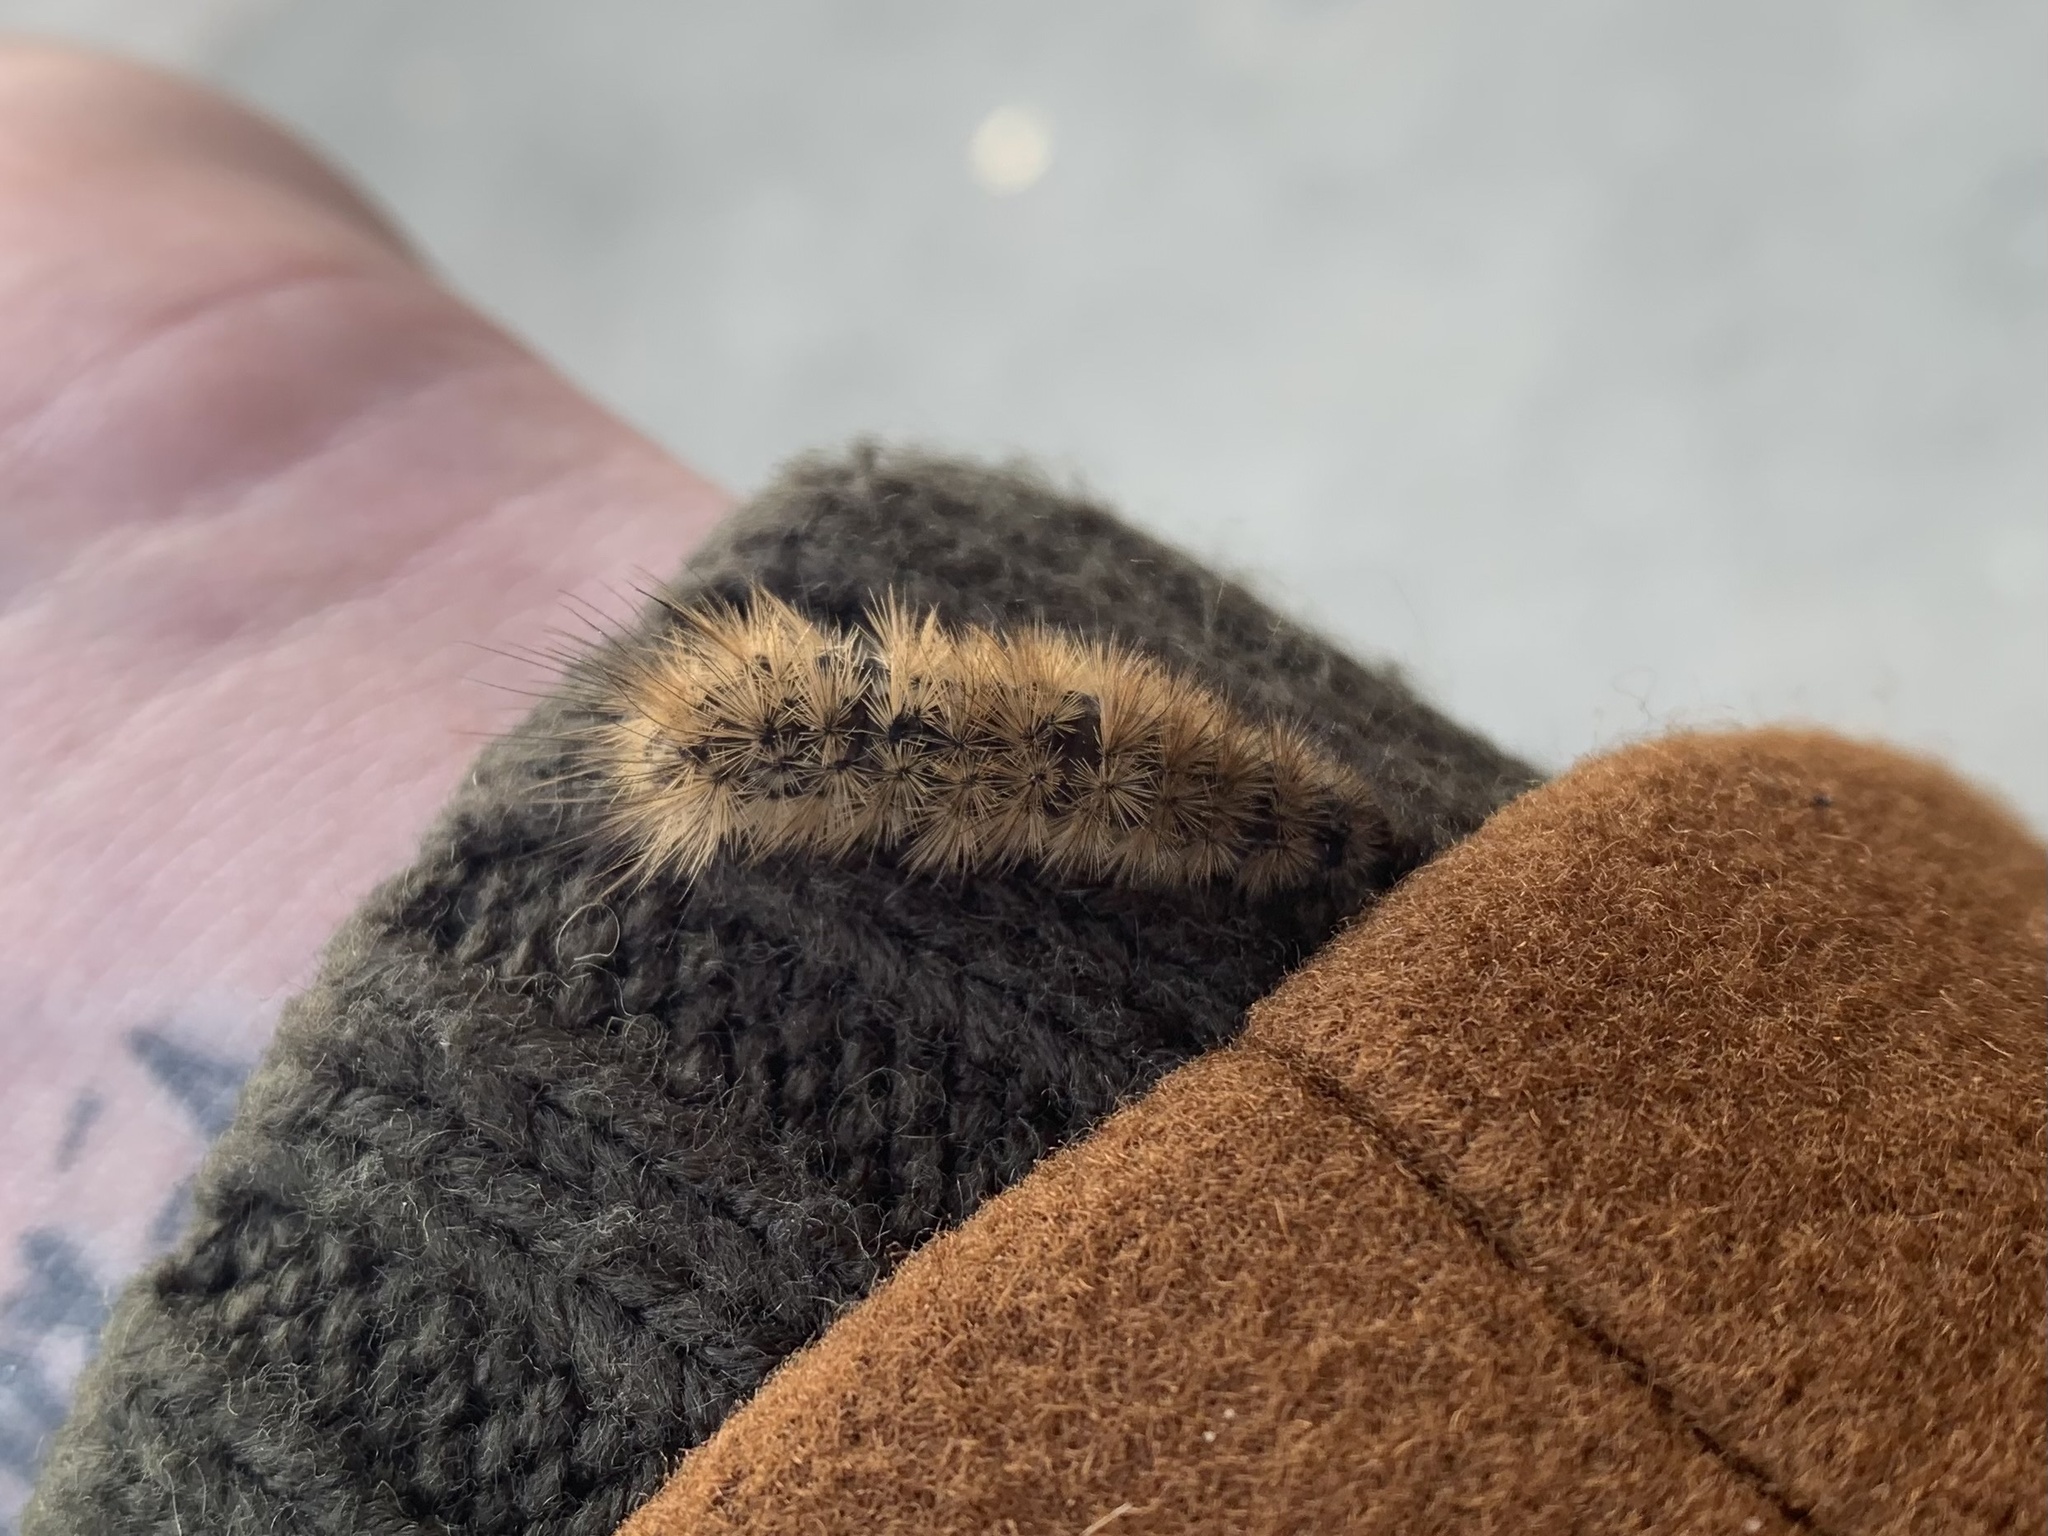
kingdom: Animalia
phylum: Arthropoda
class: Insecta
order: Lepidoptera
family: Erebidae
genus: Phragmatobia
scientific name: Phragmatobia fuliginosa
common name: Ruby tiger
